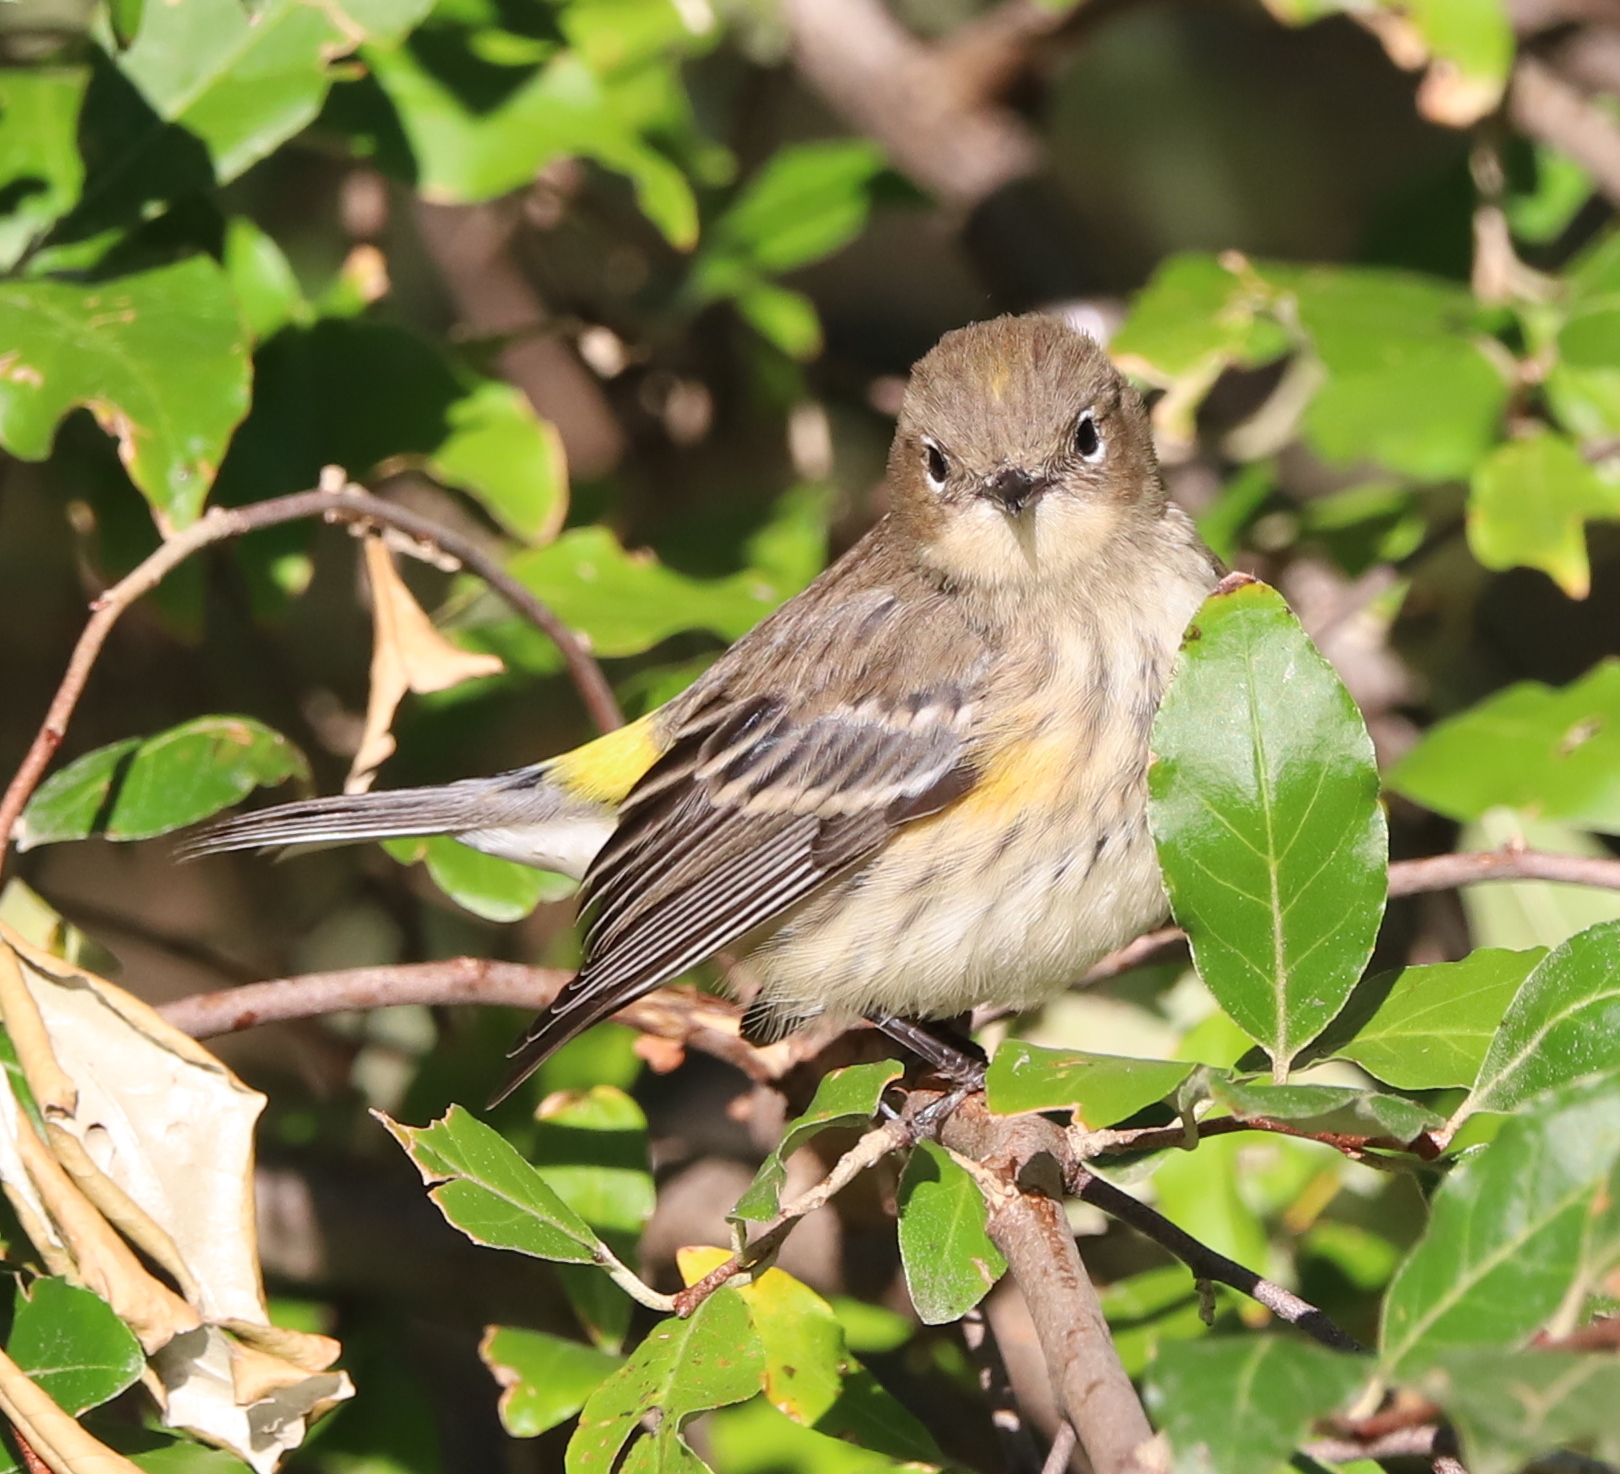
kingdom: Animalia
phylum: Chordata
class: Aves
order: Passeriformes
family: Parulidae
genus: Setophaga
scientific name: Setophaga coronata
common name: Myrtle warbler
